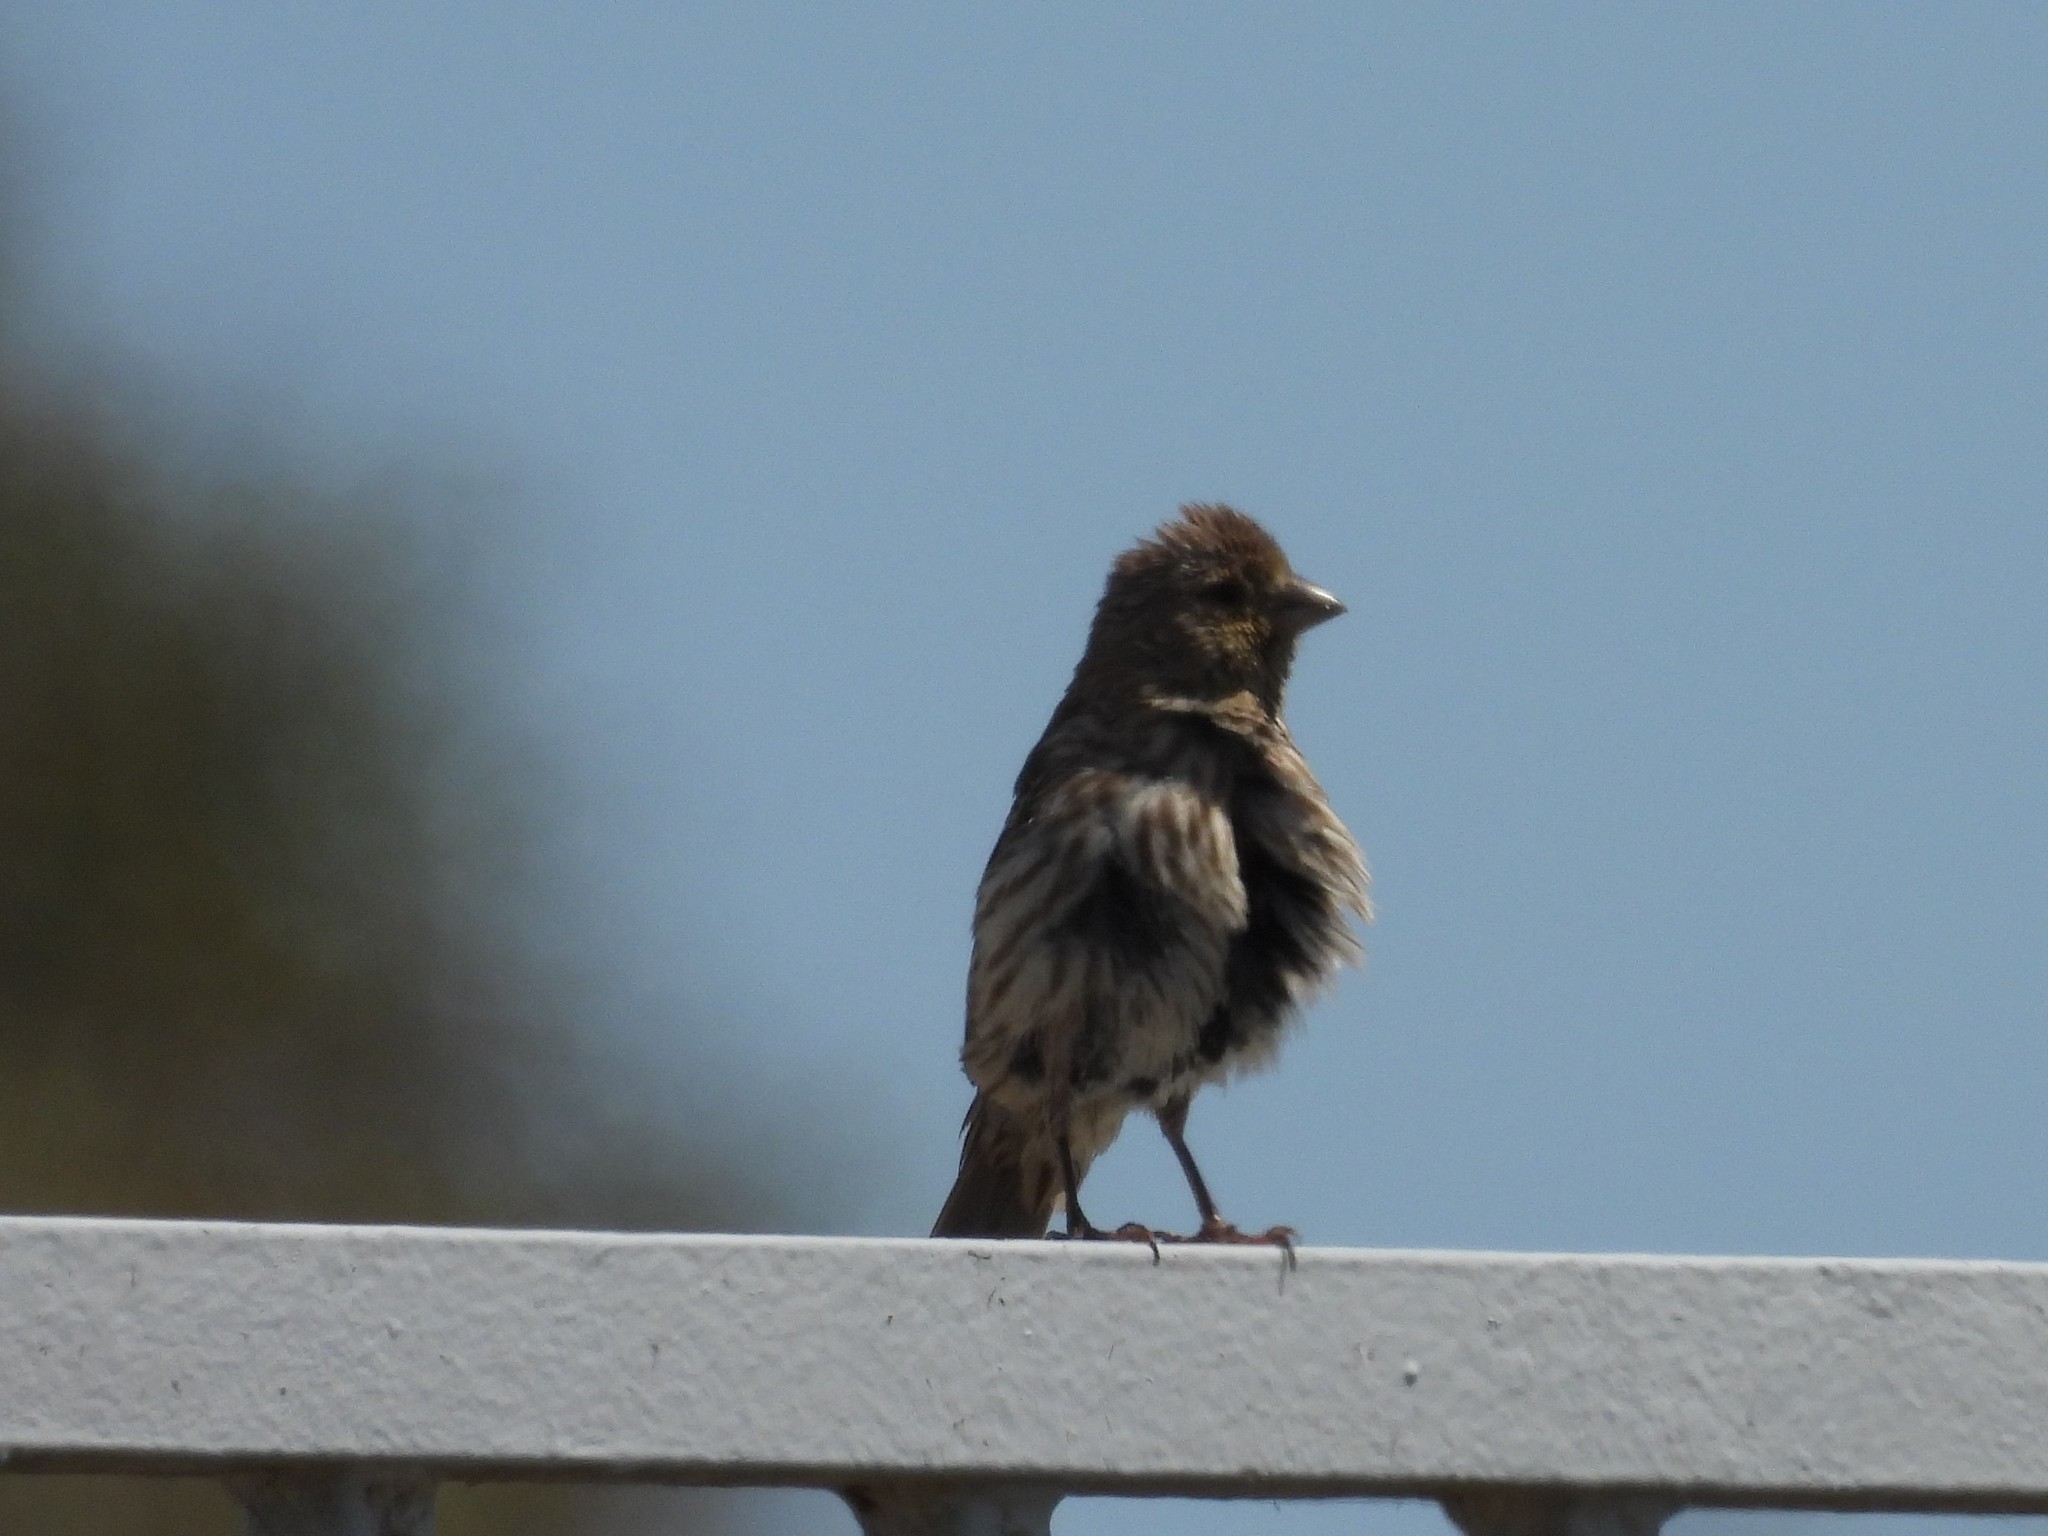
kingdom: Animalia
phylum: Chordata
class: Aves
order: Passeriformes
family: Fringillidae
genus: Haemorhous
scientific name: Haemorhous mexicanus
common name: House finch
